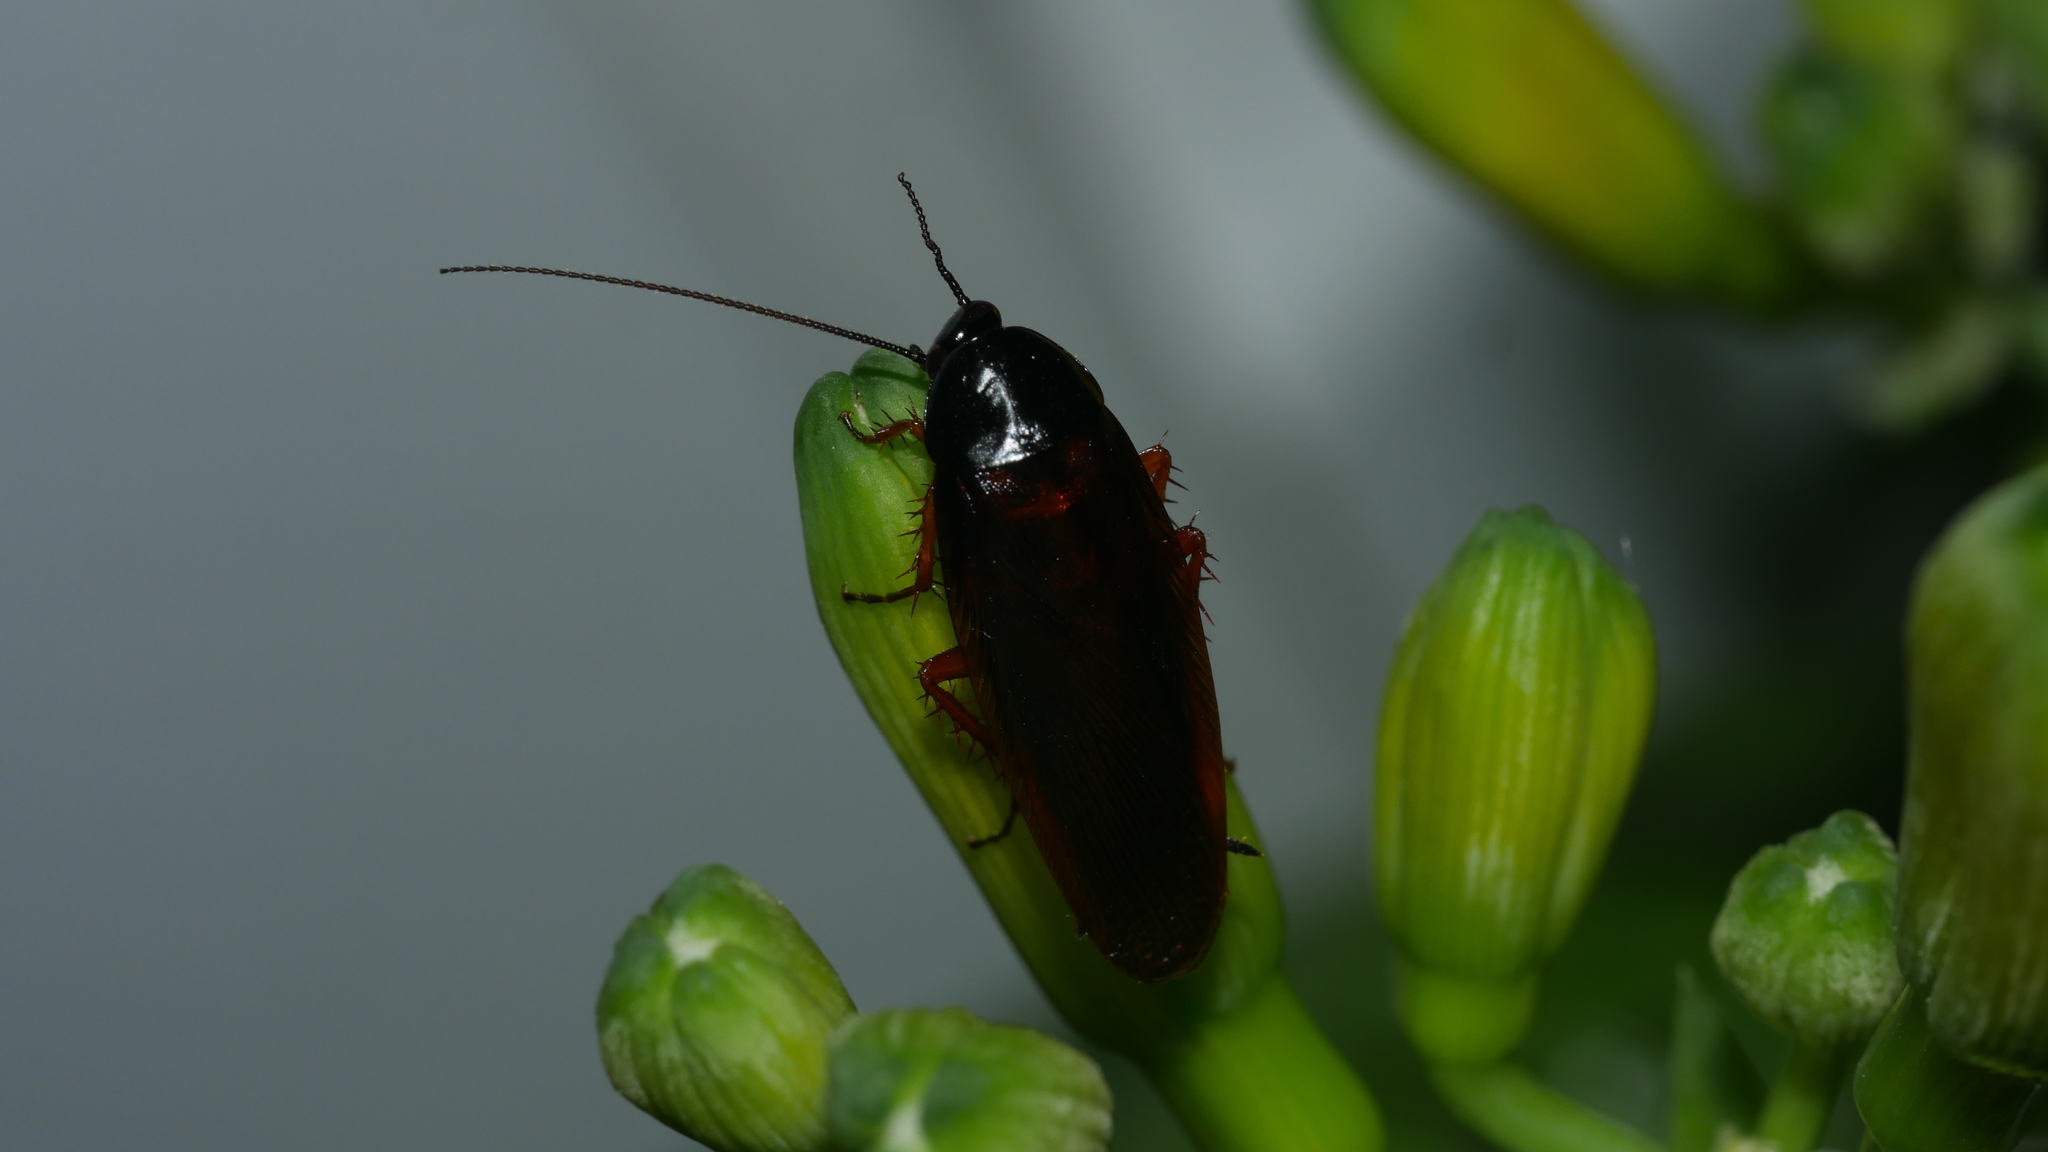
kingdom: Animalia
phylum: Arthropoda
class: Insecta
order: Blattodea
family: Ectobiidae
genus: Ischnoptera
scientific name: Ischnoptera deropeltiformis
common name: Dark wood cockroach
